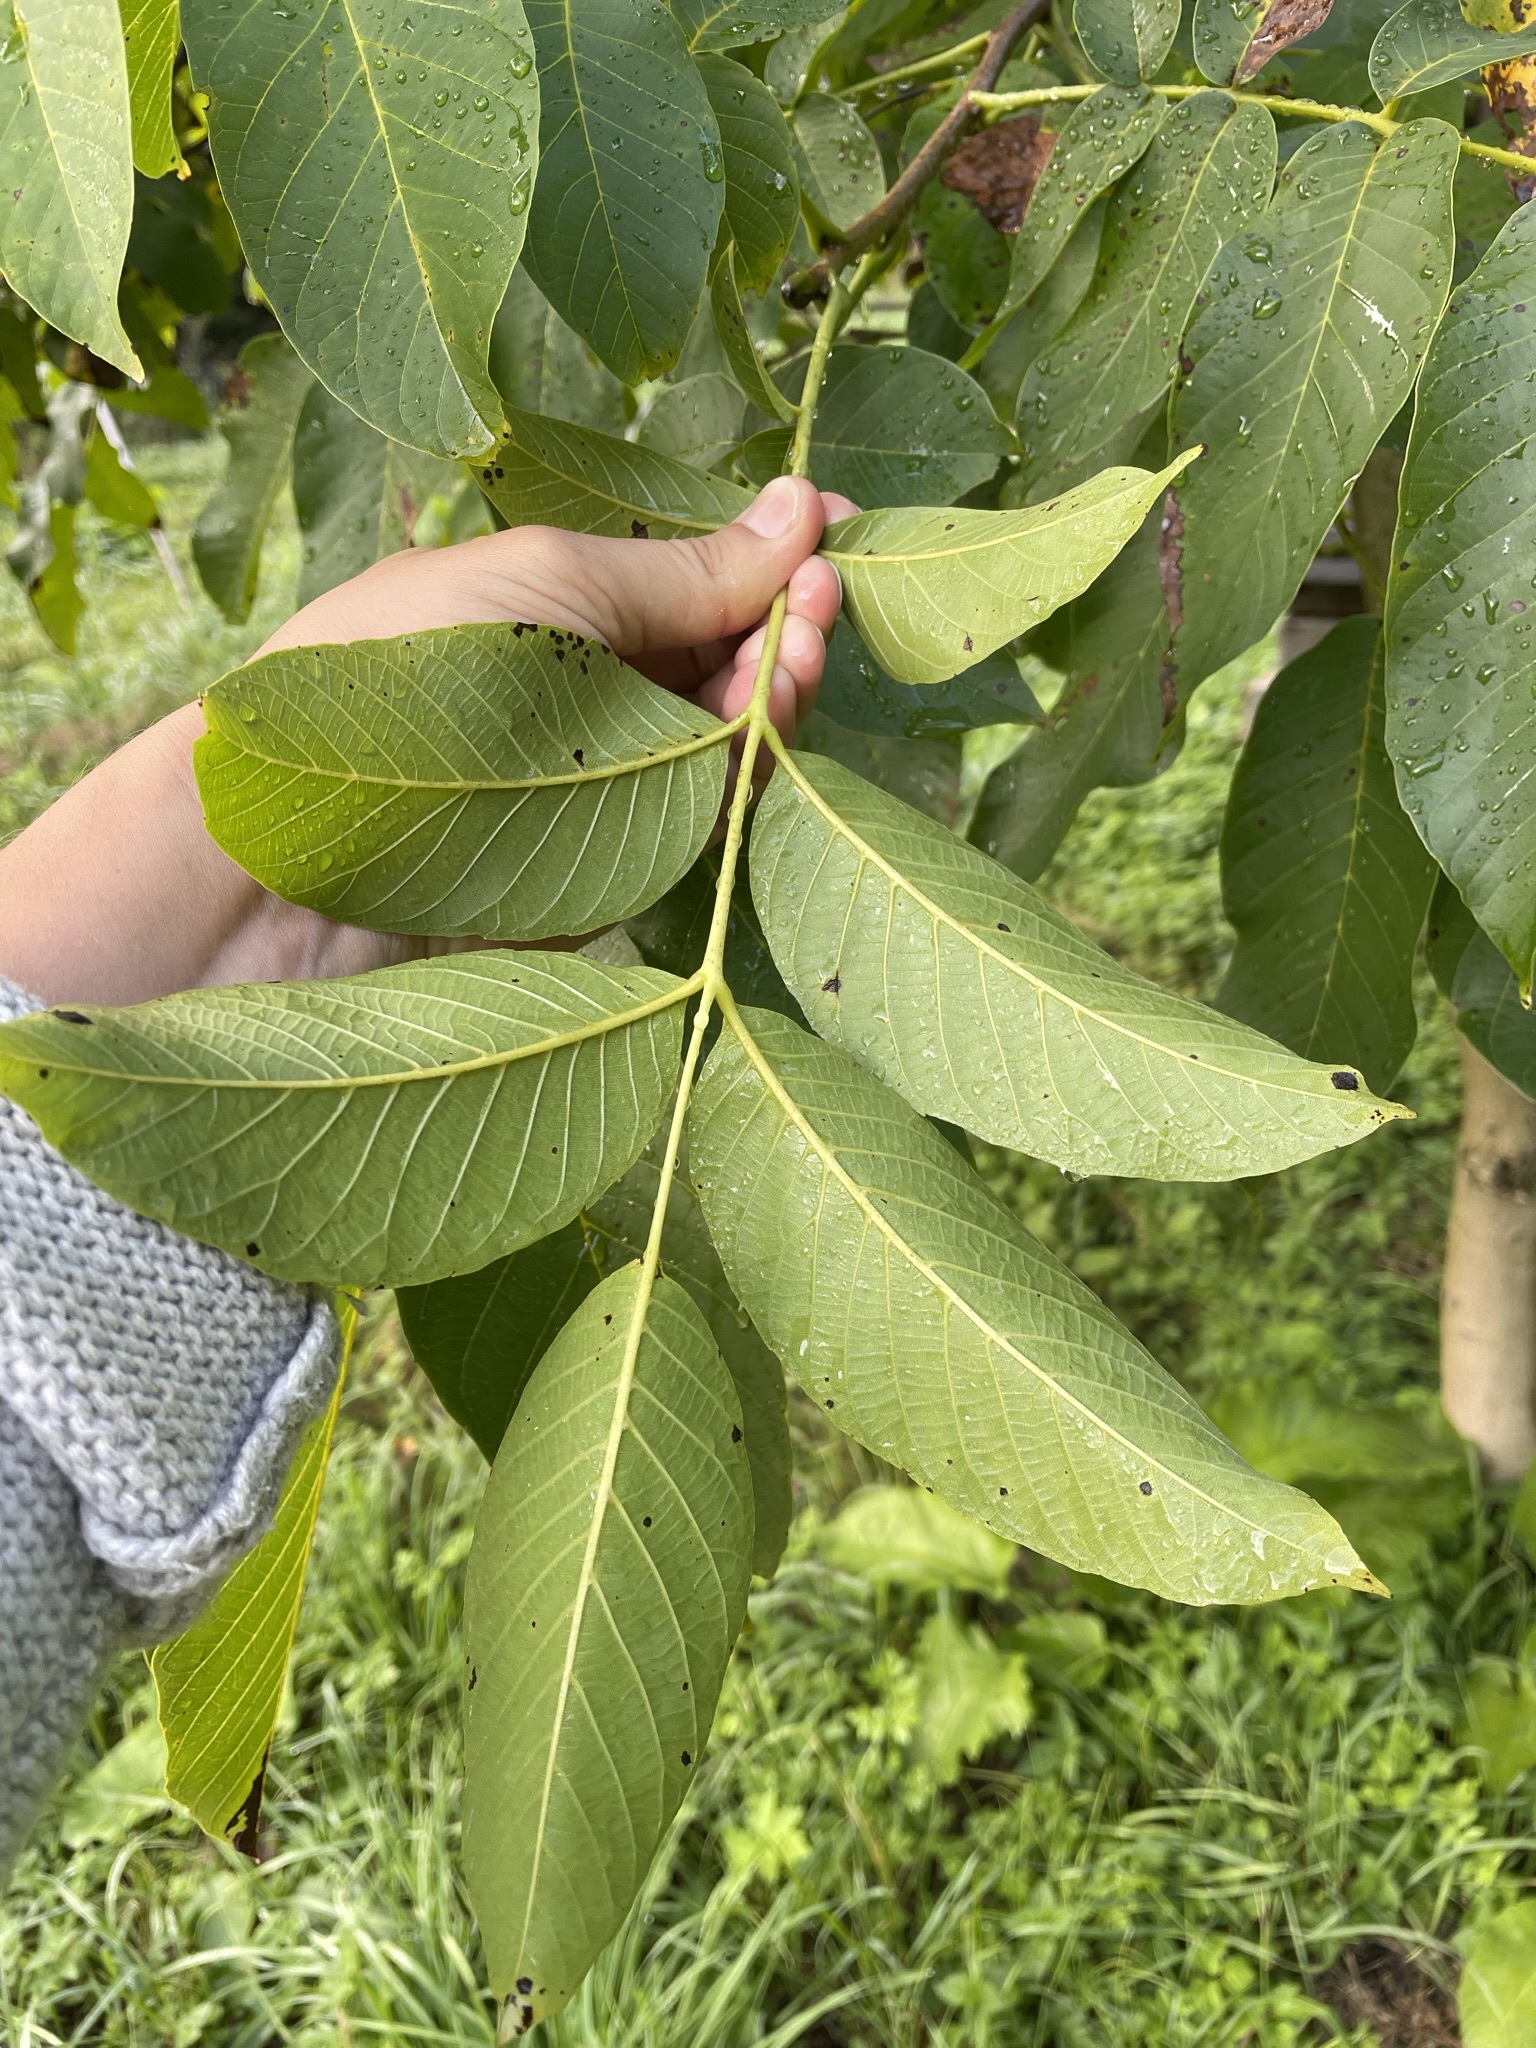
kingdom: Plantae
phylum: Tracheophyta
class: Magnoliopsida
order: Fagales
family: Juglandaceae
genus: Juglans
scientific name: Juglans regia
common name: Walnut
